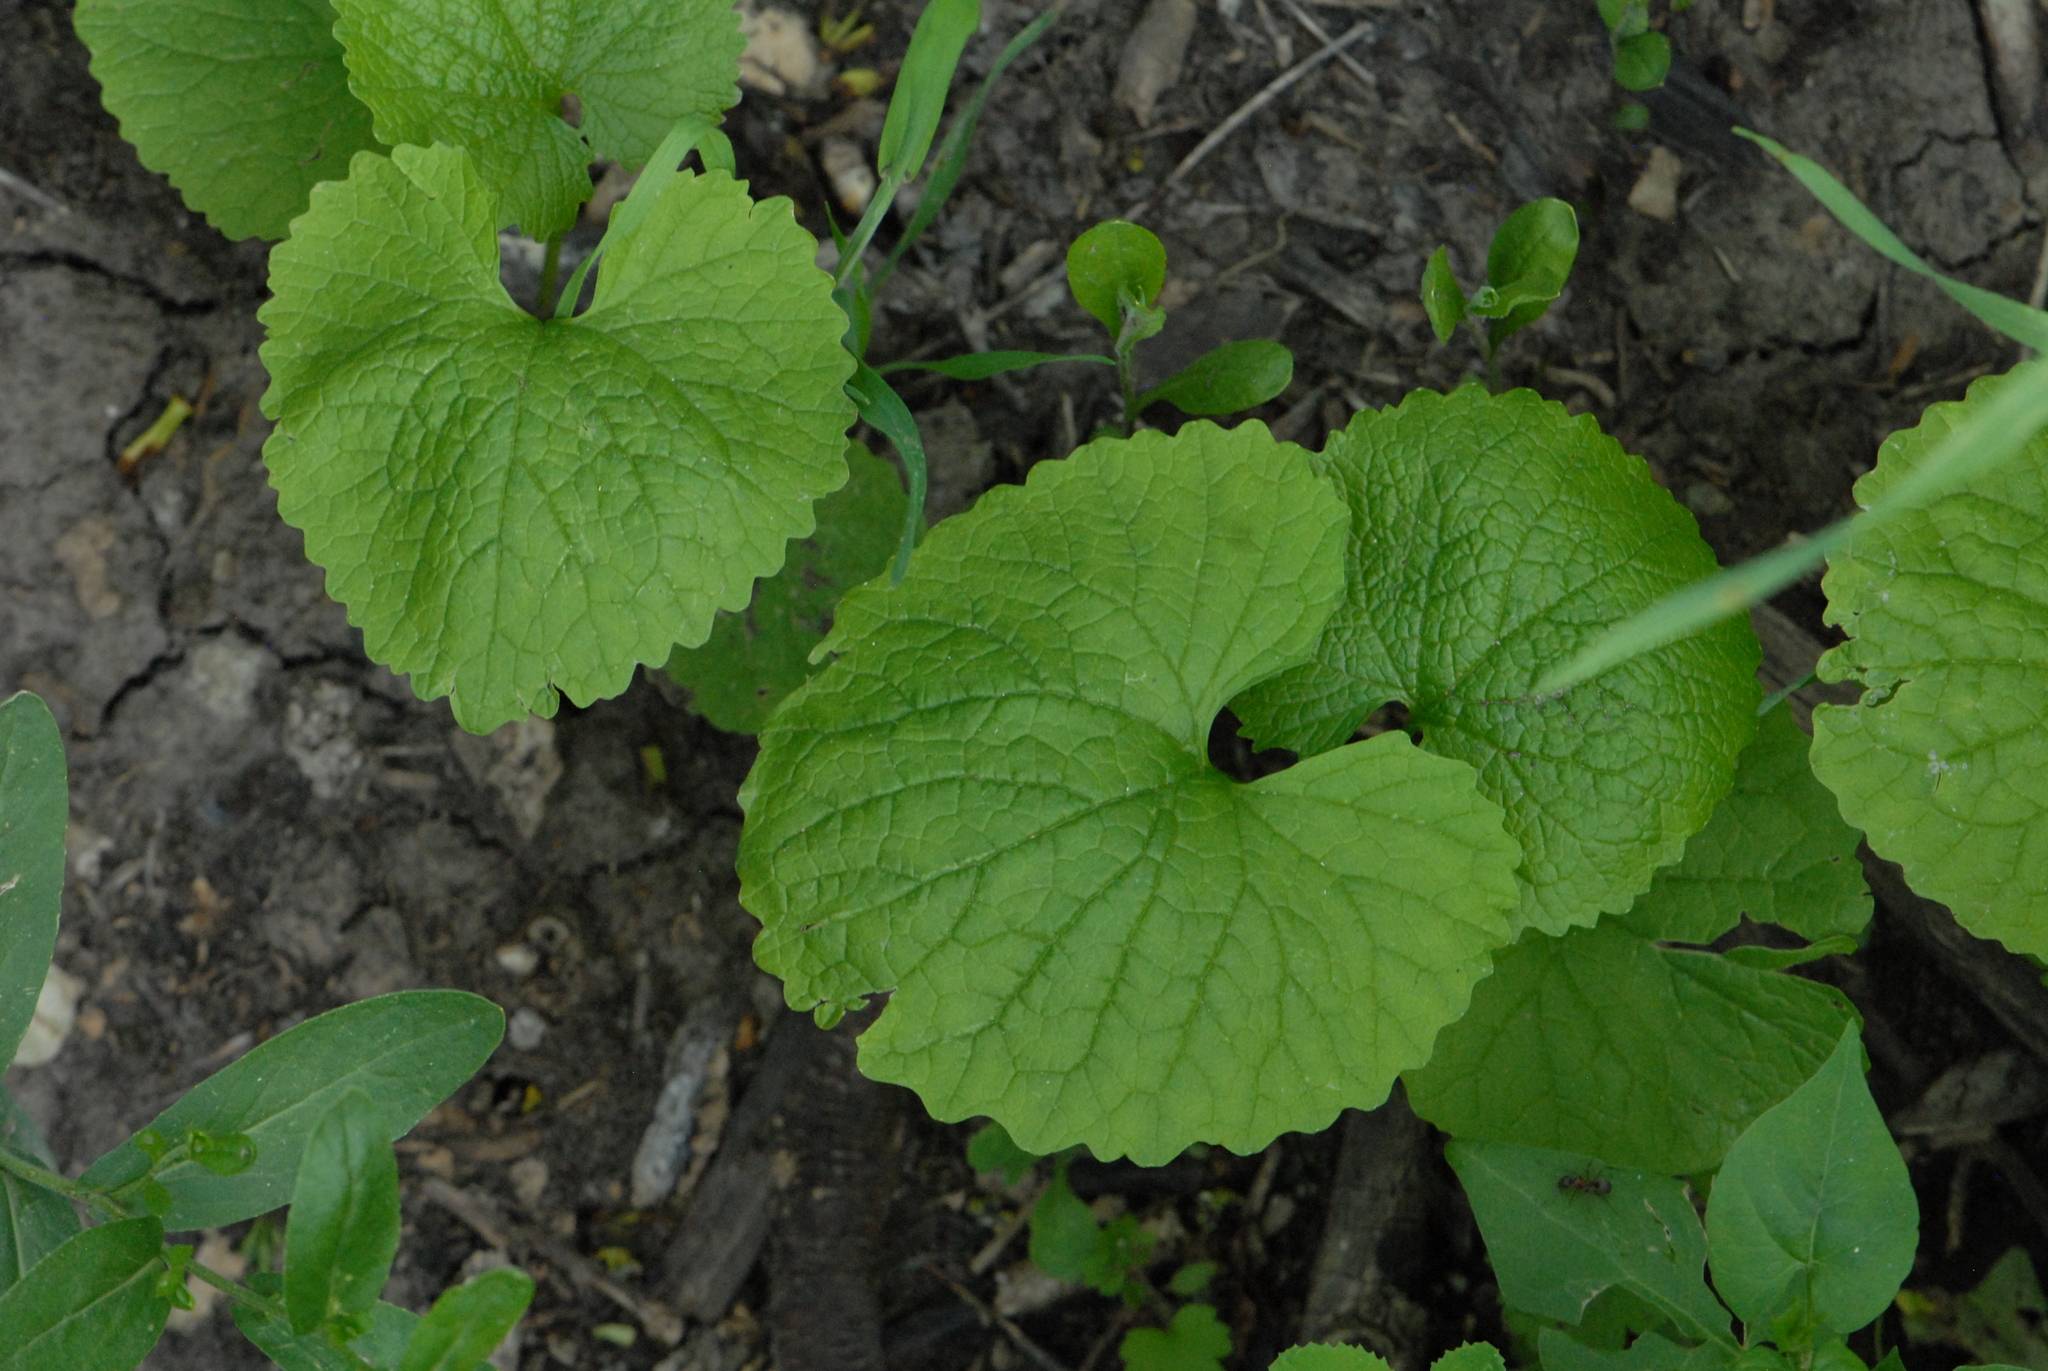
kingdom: Plantae
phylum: Tracheophyta
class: Magnoliopsida
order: Brassicales
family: Brassicaceae
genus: Alliaria
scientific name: Alliaria petiolata
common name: Garlic mustard
